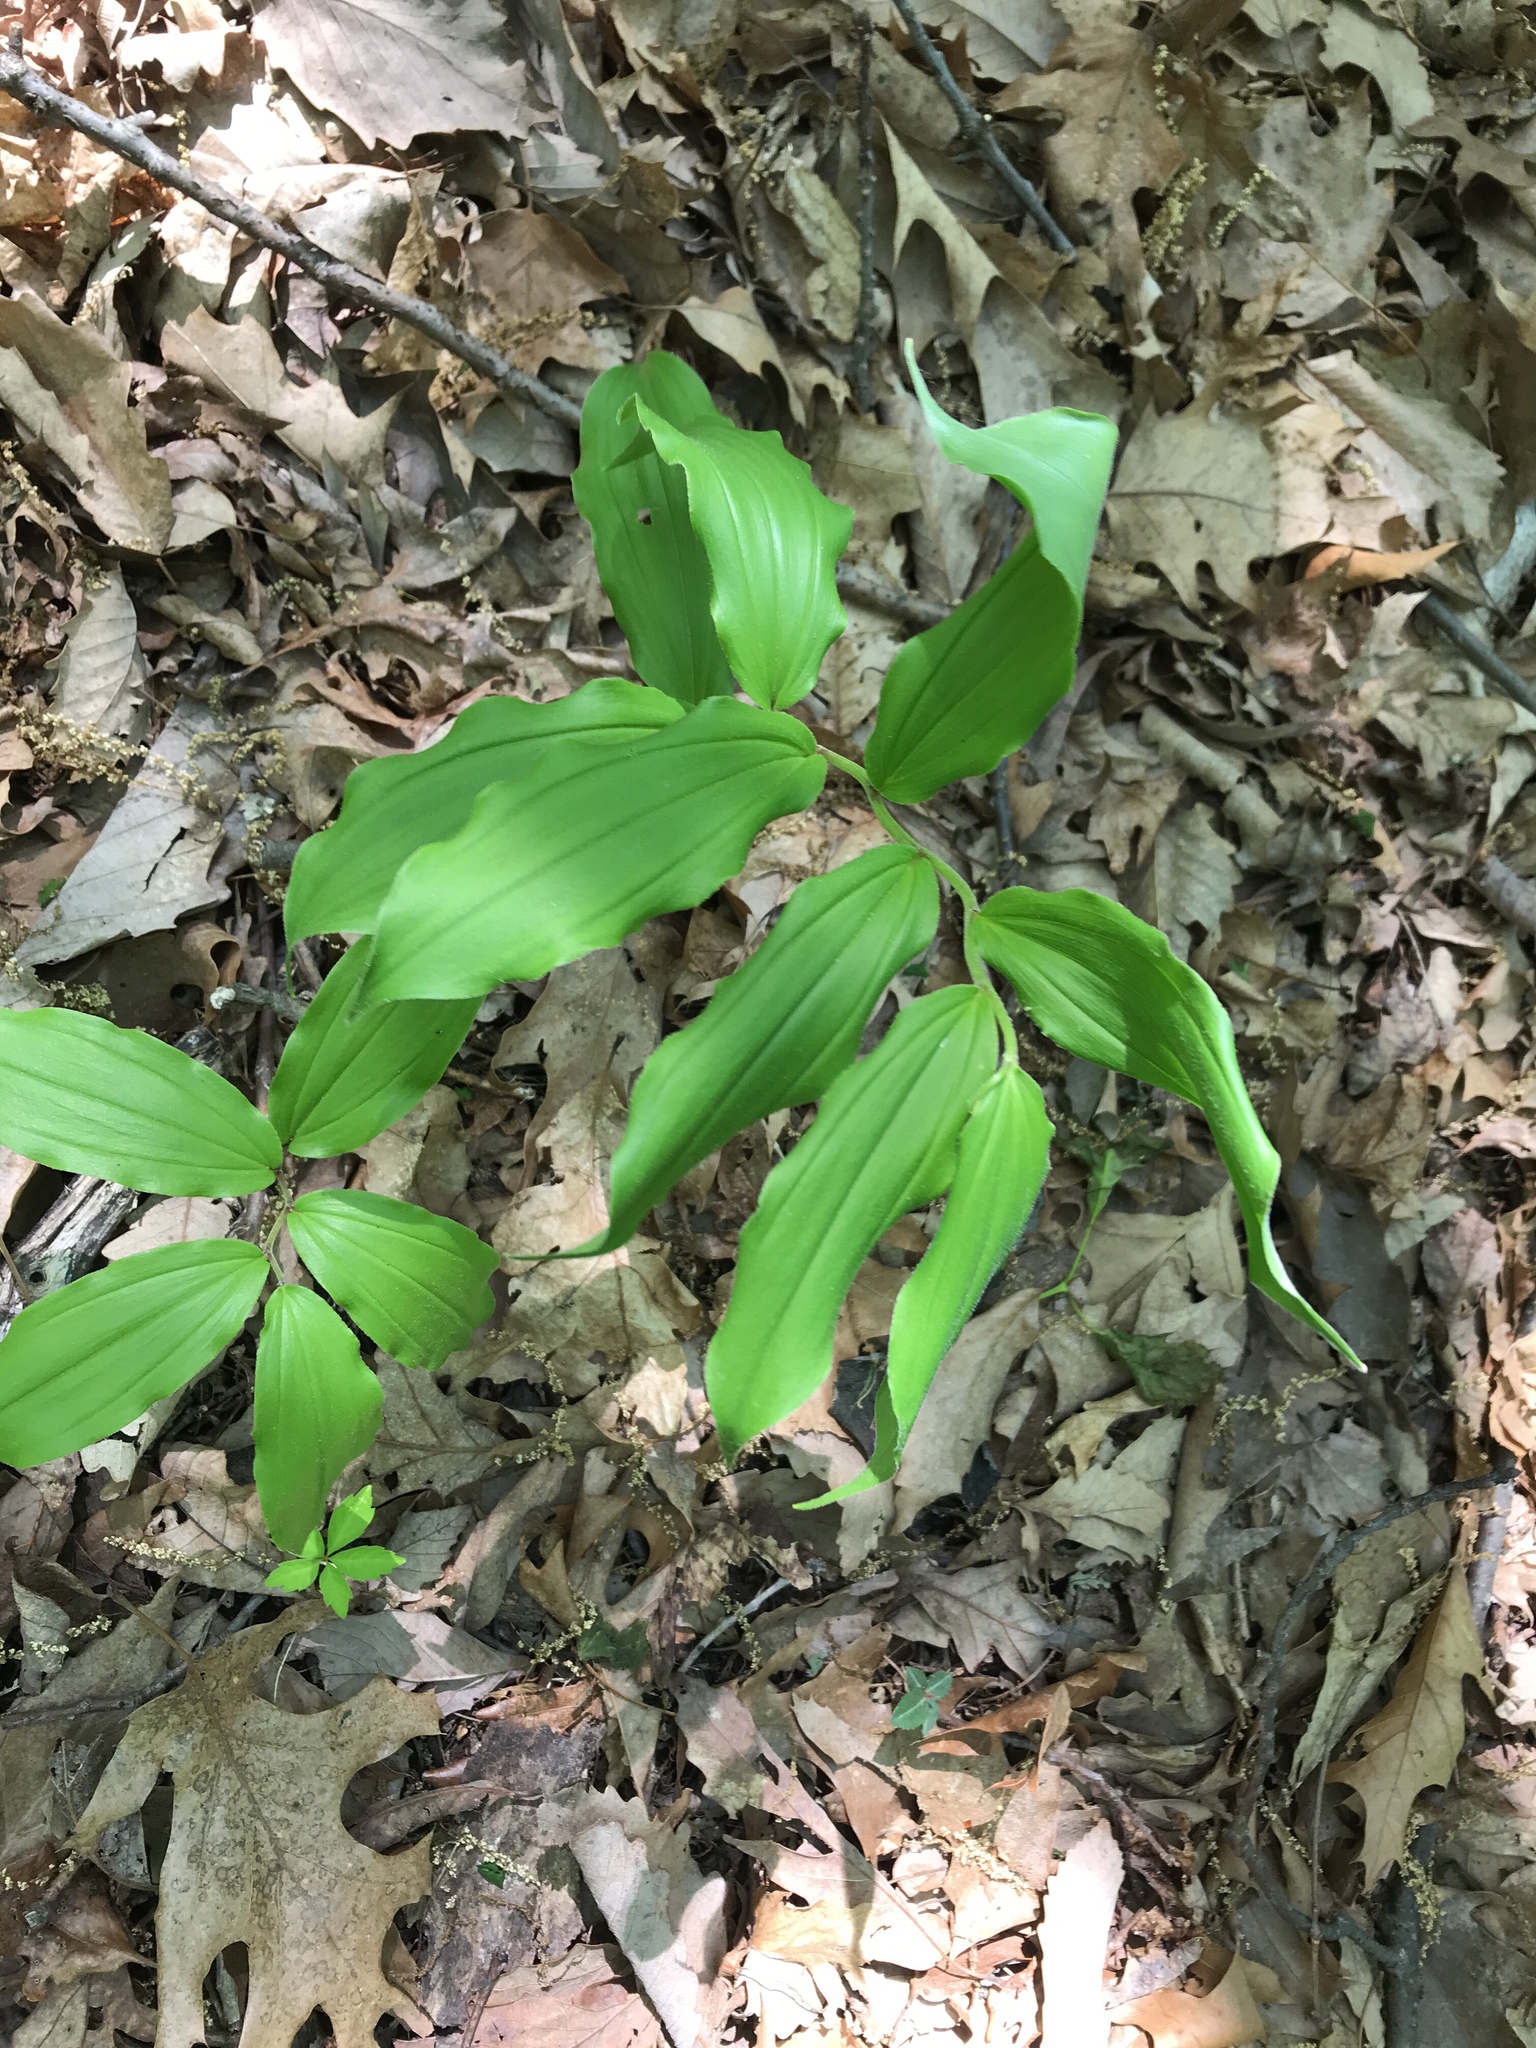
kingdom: Plantae
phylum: Tracheophyta
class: Liliopsida
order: Asparagales
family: Asparagaceae
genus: Maianthemum
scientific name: Maianthemum racemosum
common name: False spikenard
